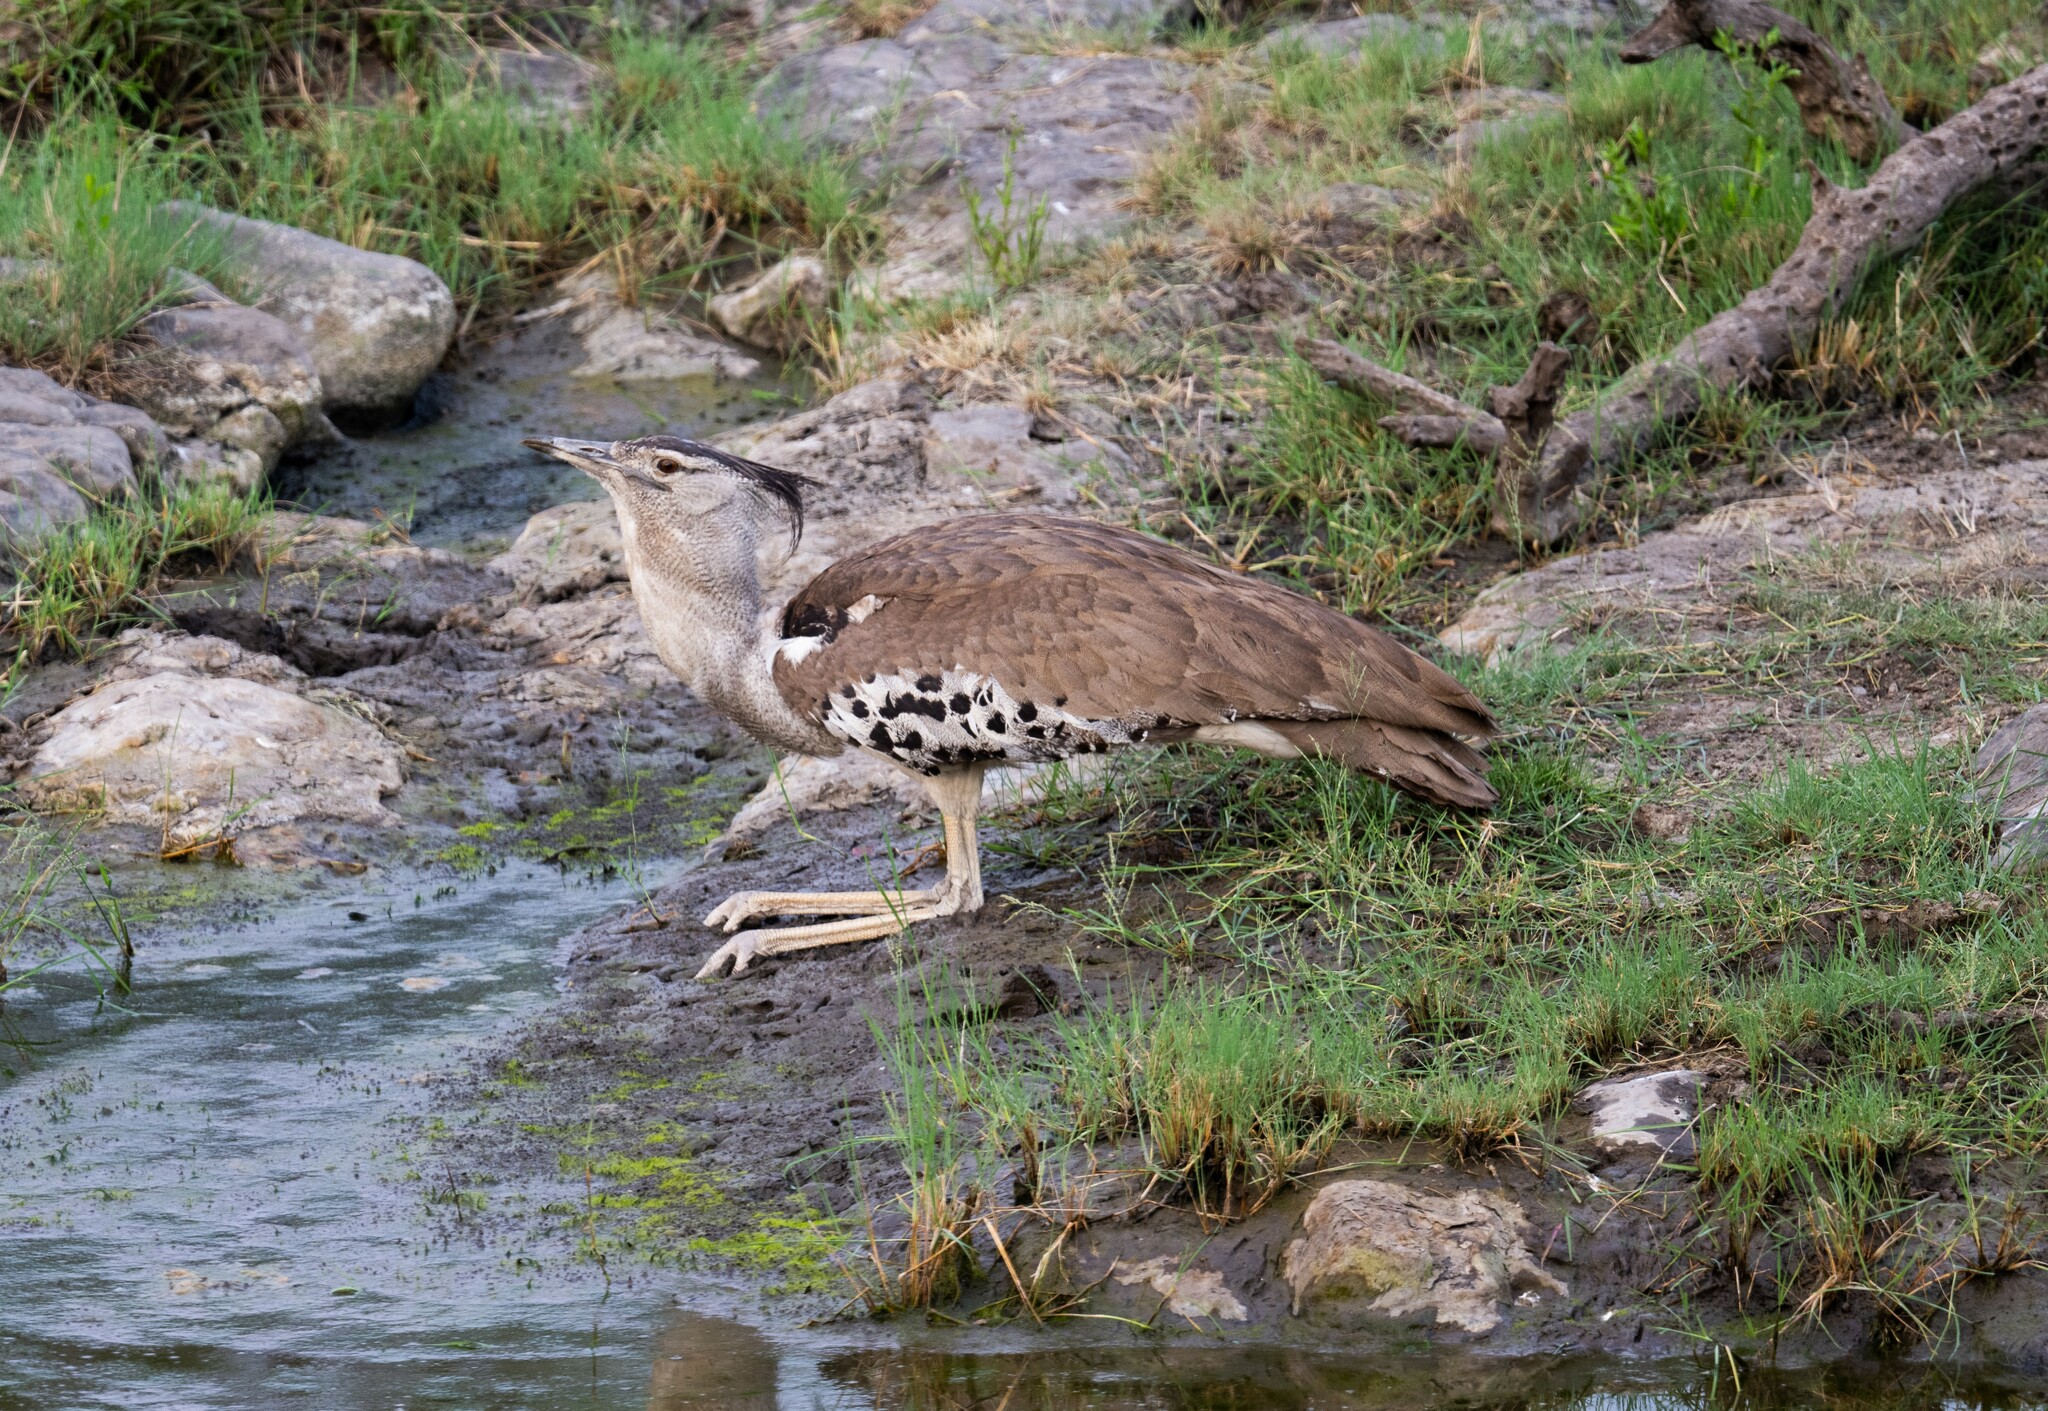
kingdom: Animalia
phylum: Chordata
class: Aves
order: Otidiformes
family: Otididae
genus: Ardeotis
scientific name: Ardeotis kori
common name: Kori bustard
